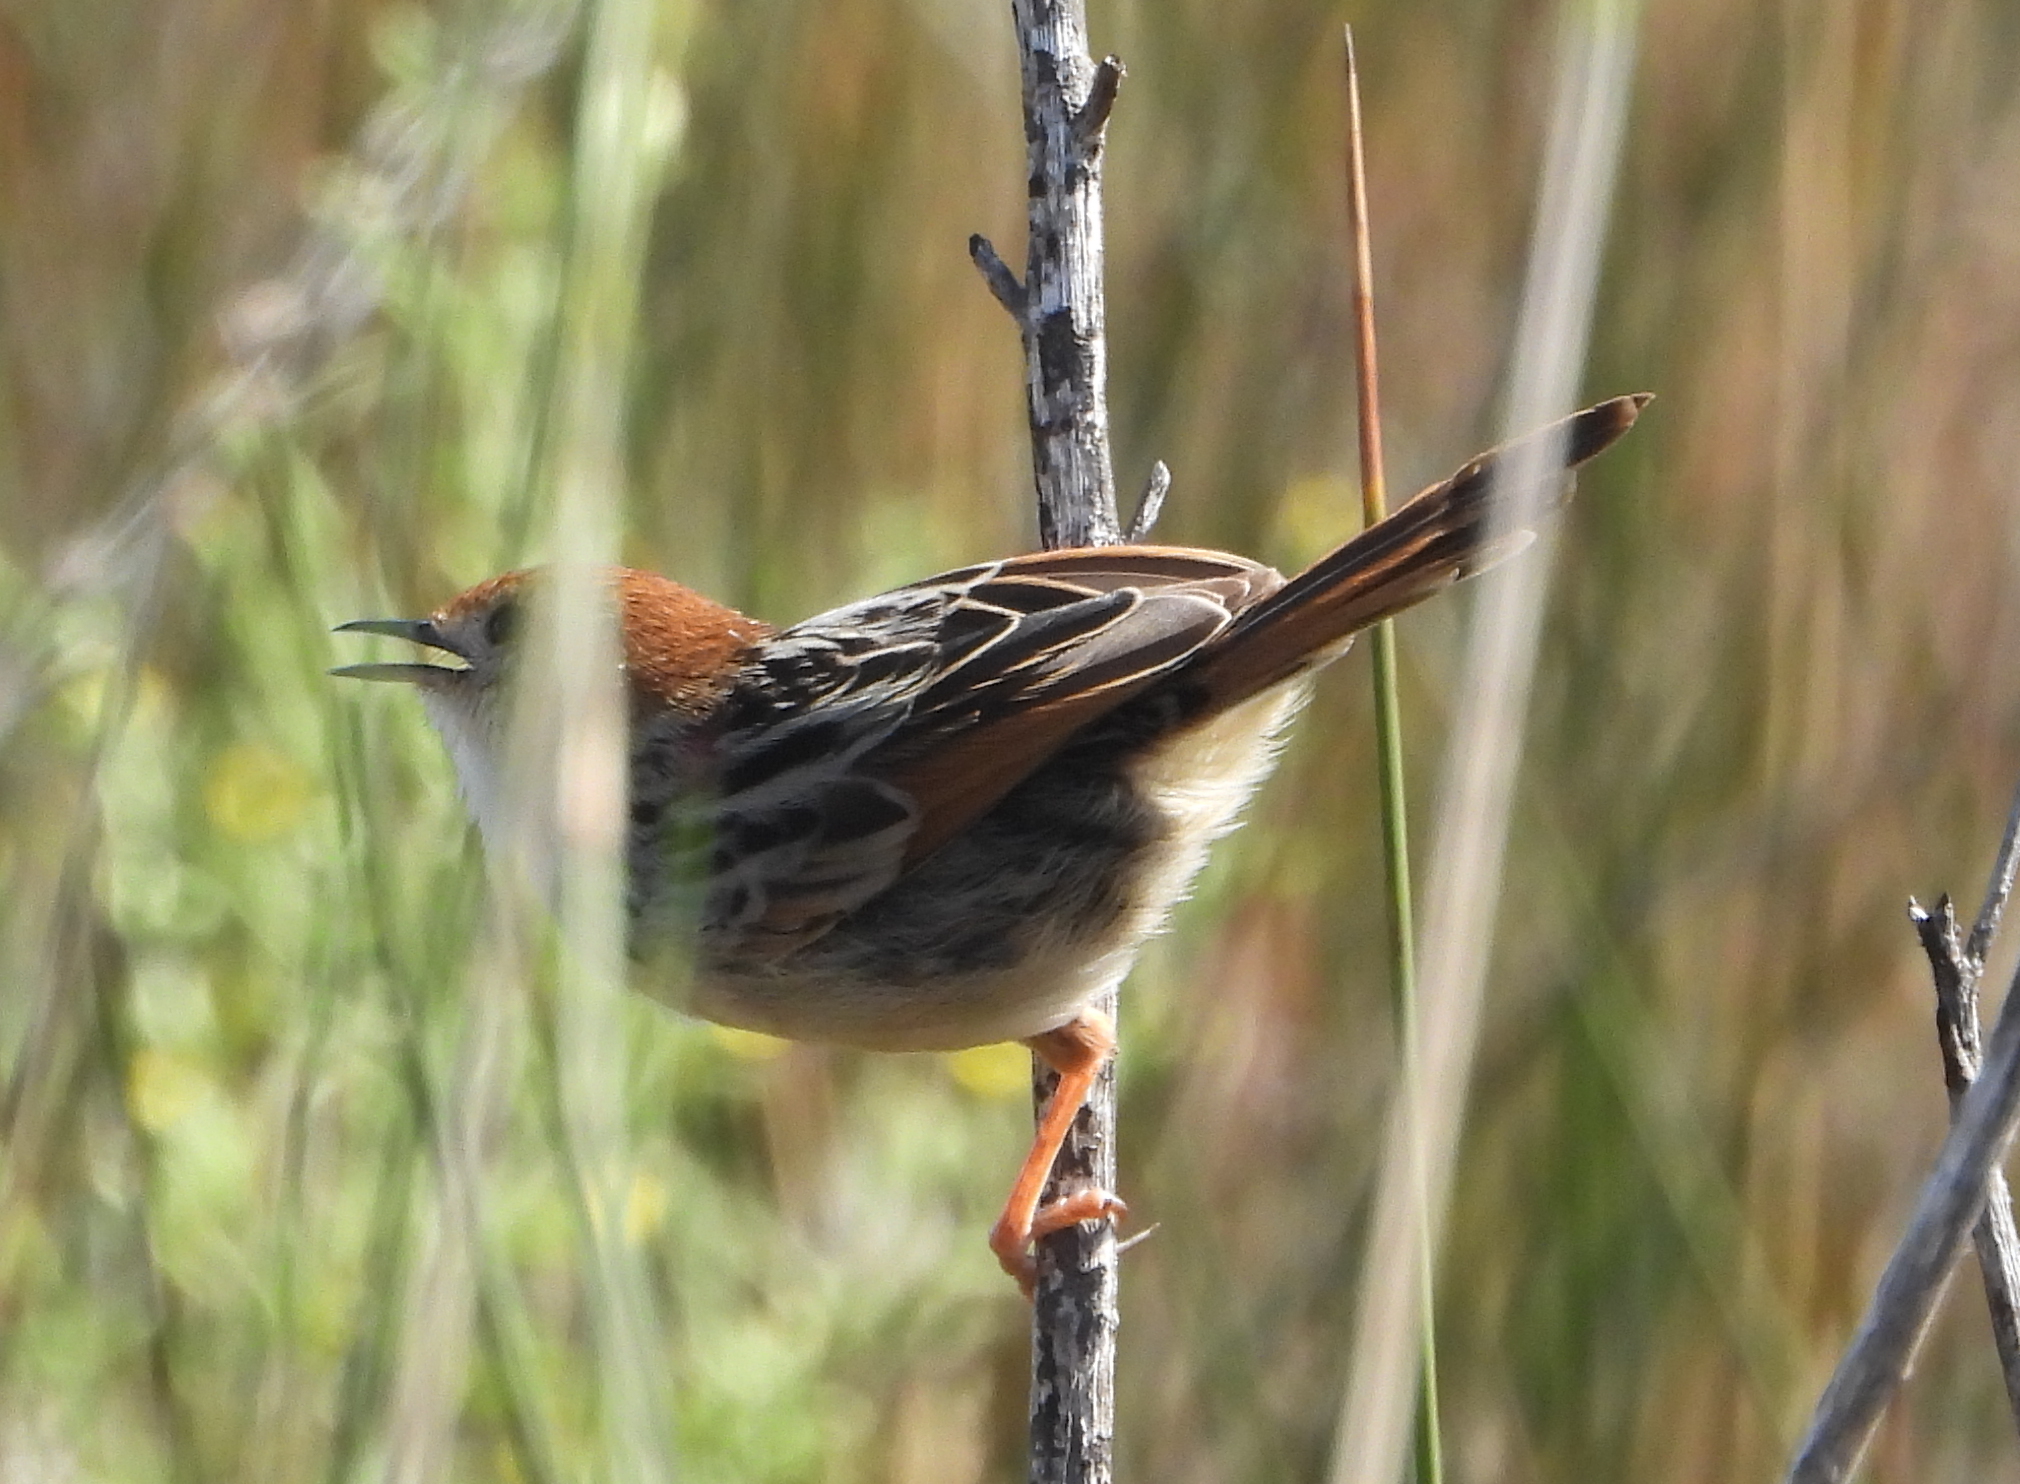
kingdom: Animalia
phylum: Chordata
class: Aves
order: Passeriformes
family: Cisticolidae
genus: Cisticola
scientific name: Cisticola tinniens
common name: Levaillant's cisticola
